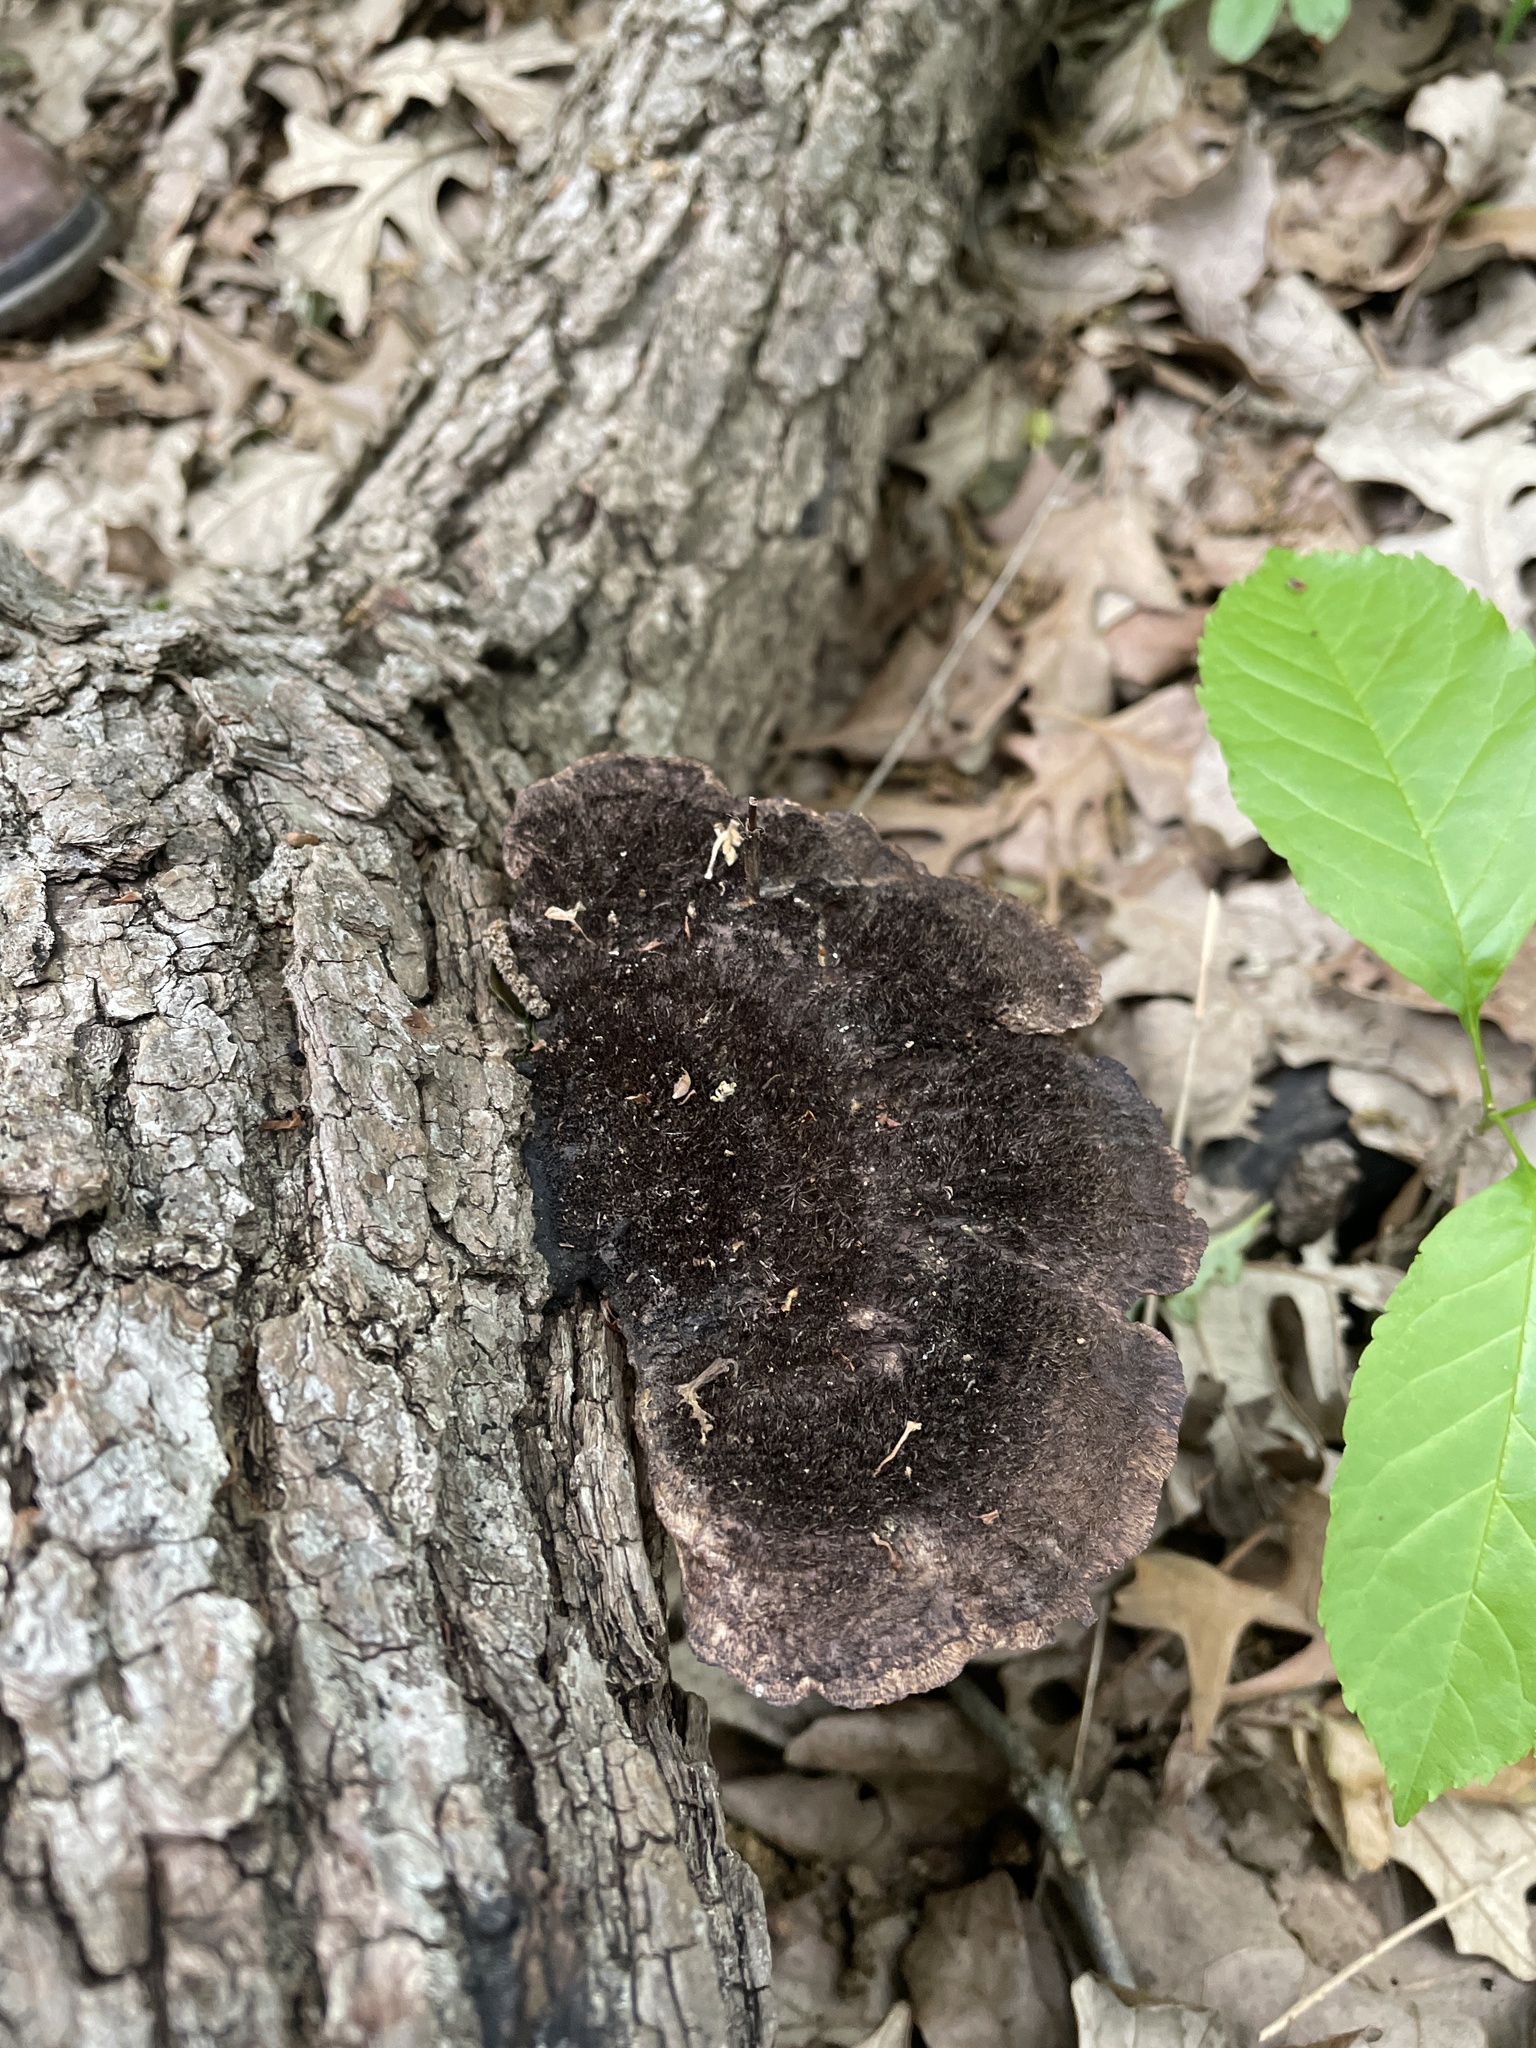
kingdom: Fungi
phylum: Basidiomycota
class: Agaricomycetes
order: Polyporales
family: Cerrenaceae
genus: Cerrena
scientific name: Cerrena hydnoides
